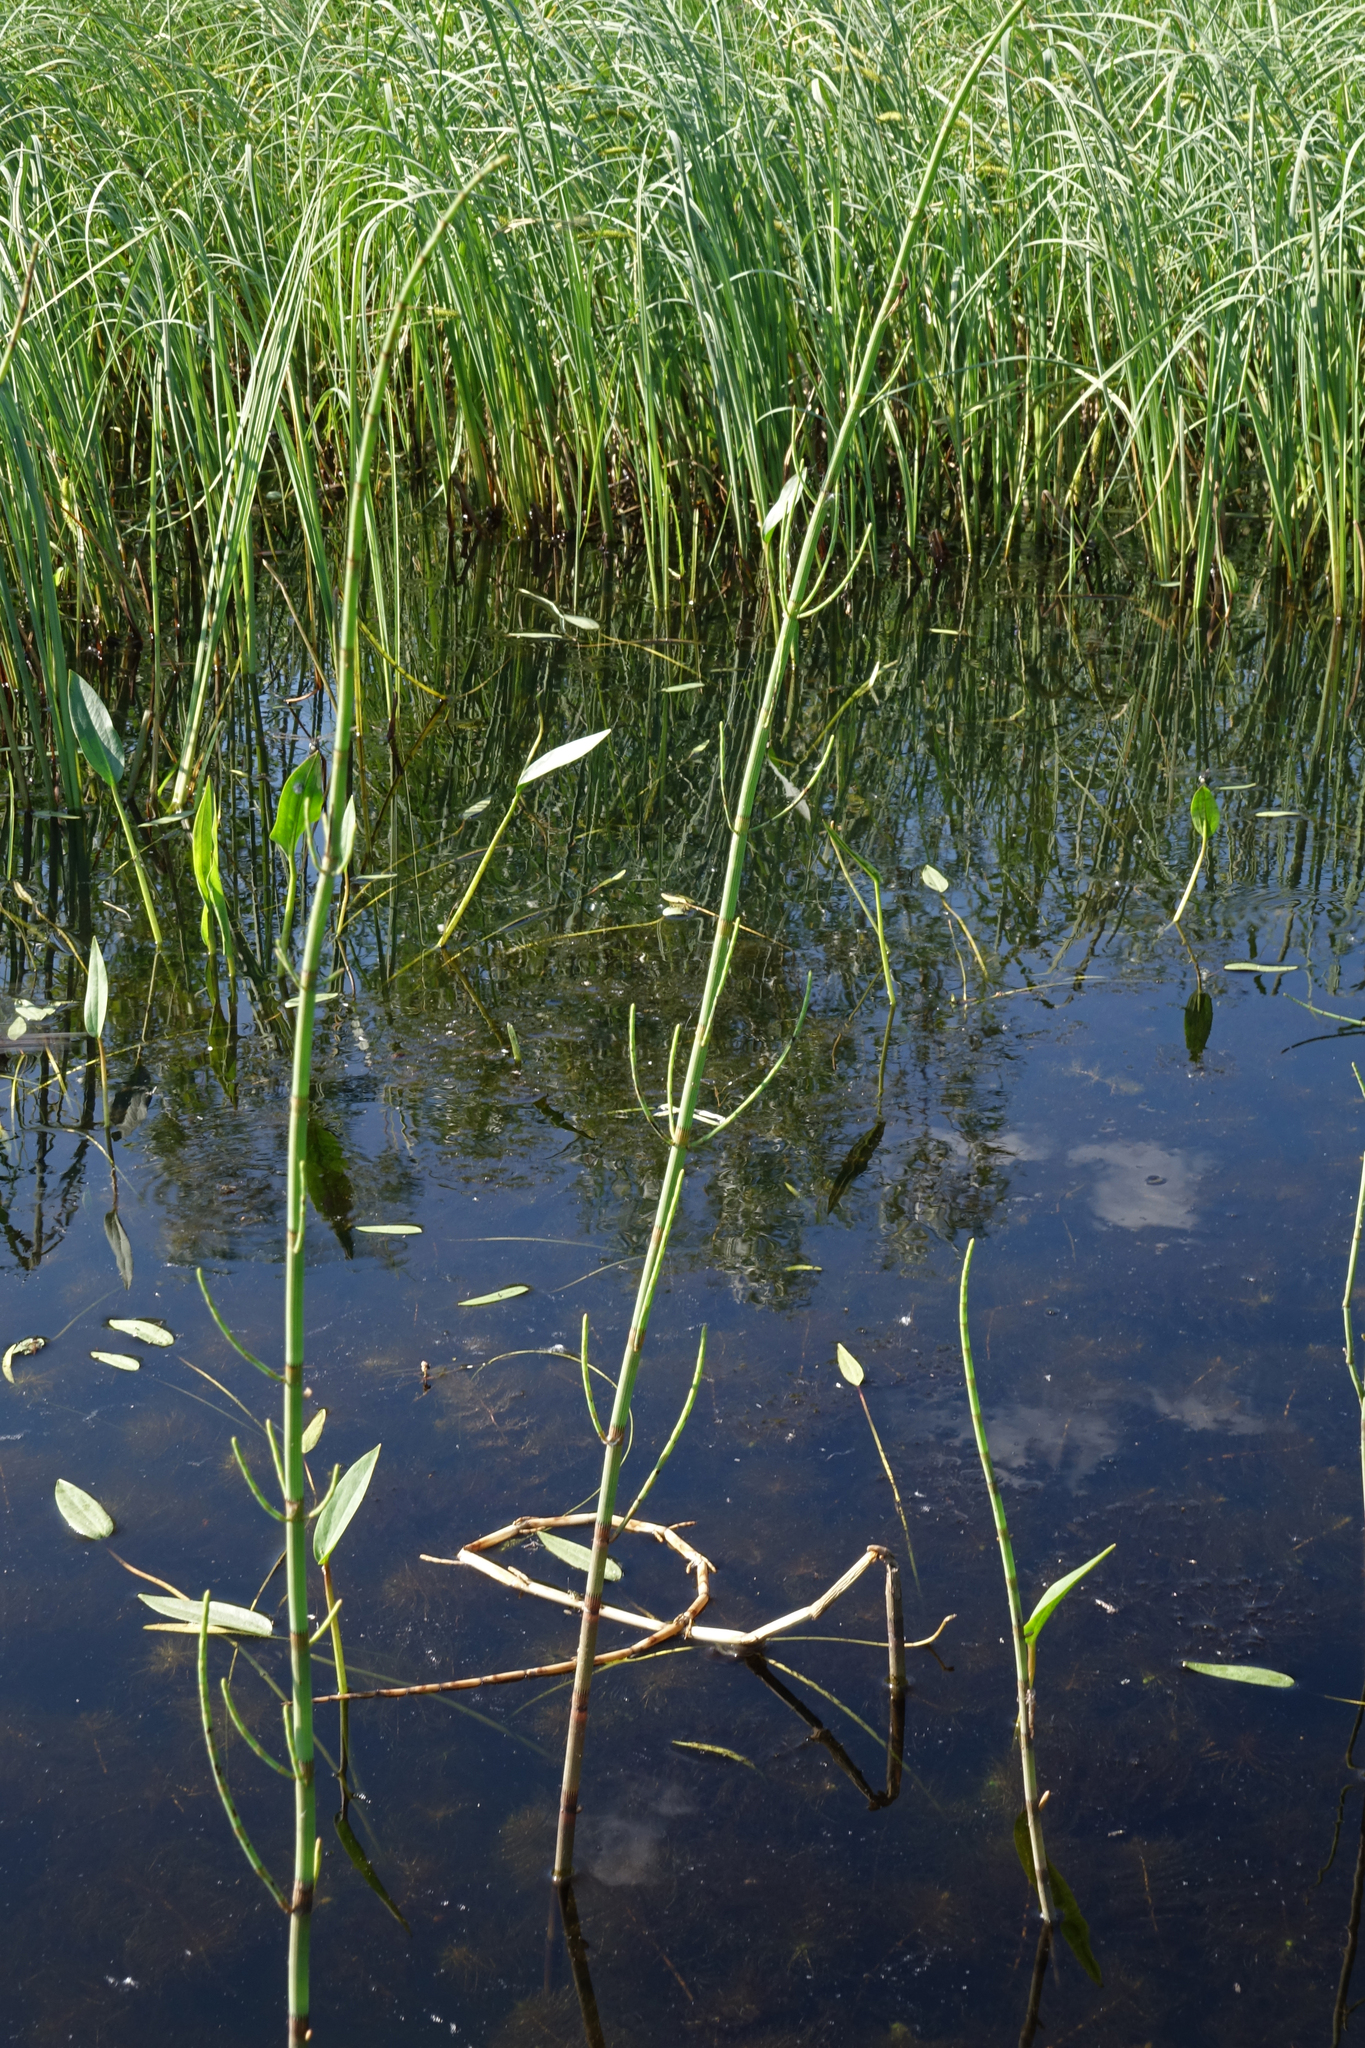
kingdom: Plantae
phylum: Tracheophyta
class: Polypodiopsida
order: Equisetales
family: Equisetaceae
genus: Equisetum
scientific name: Equisetum fluviatile
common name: Water horsetail
